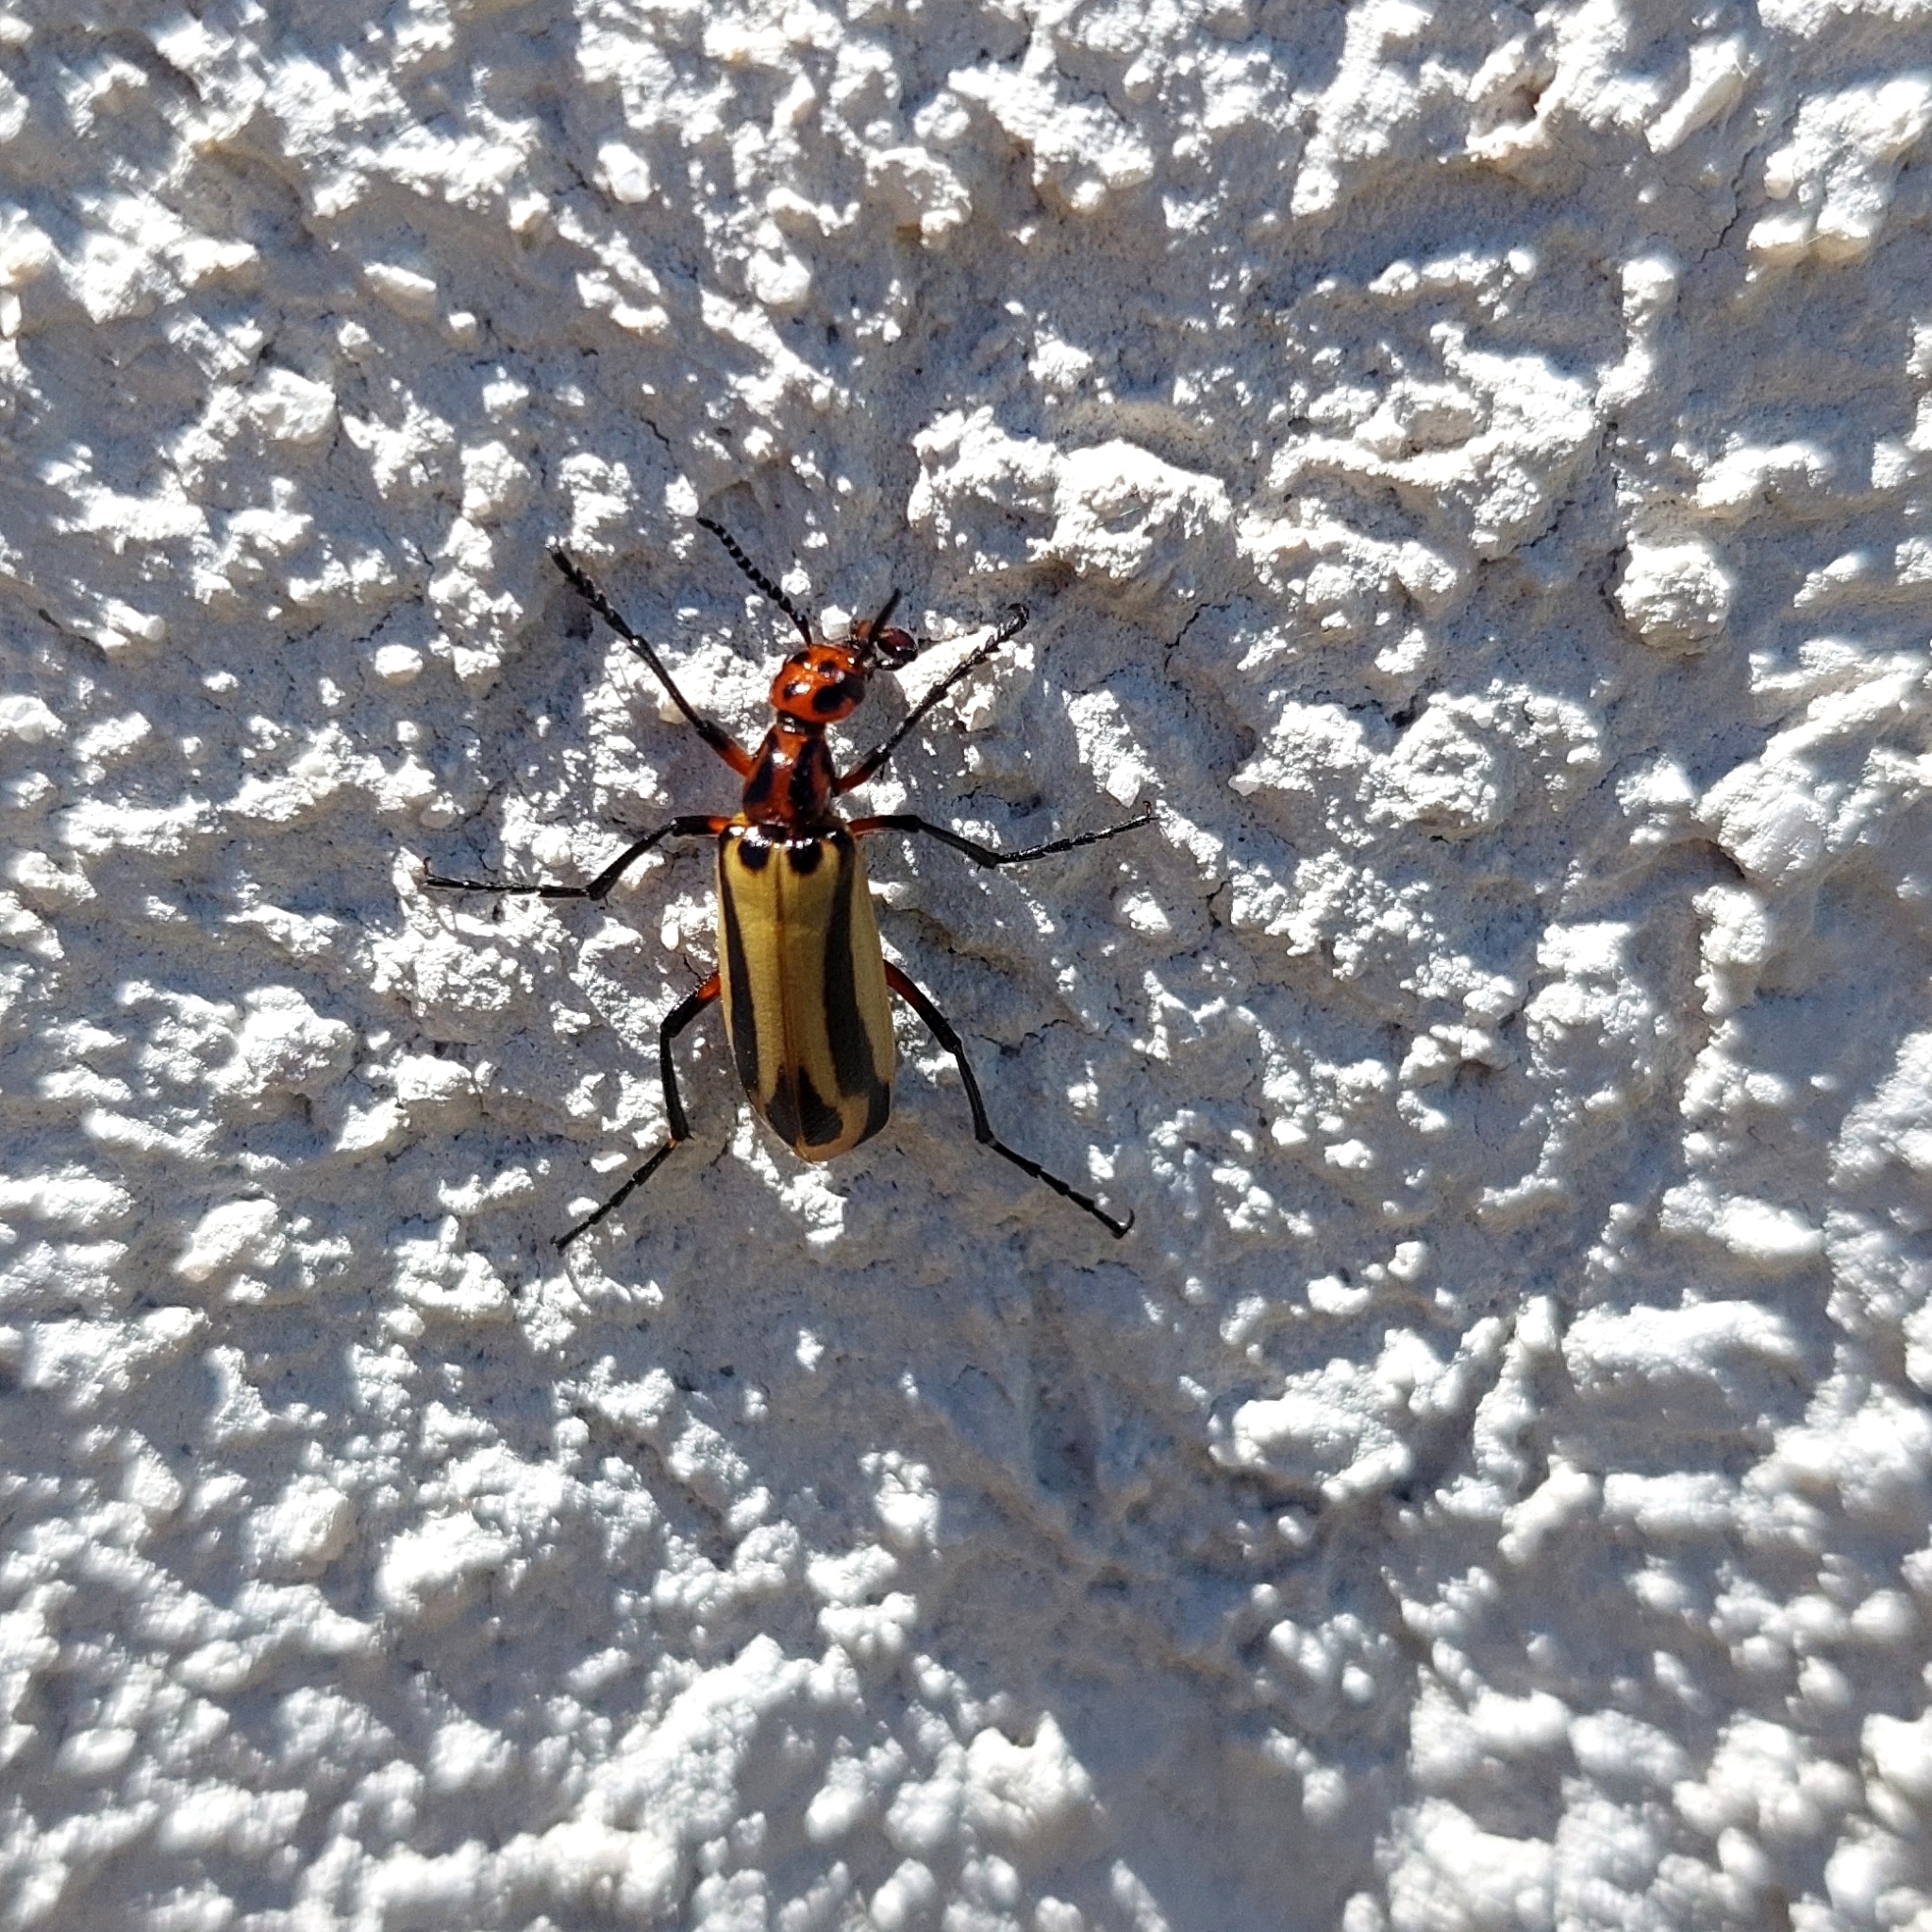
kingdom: Animalia
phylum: Arthropoda
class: Insecta
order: Coleoptera
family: Meloidae
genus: Pyrota
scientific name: Pyrota
